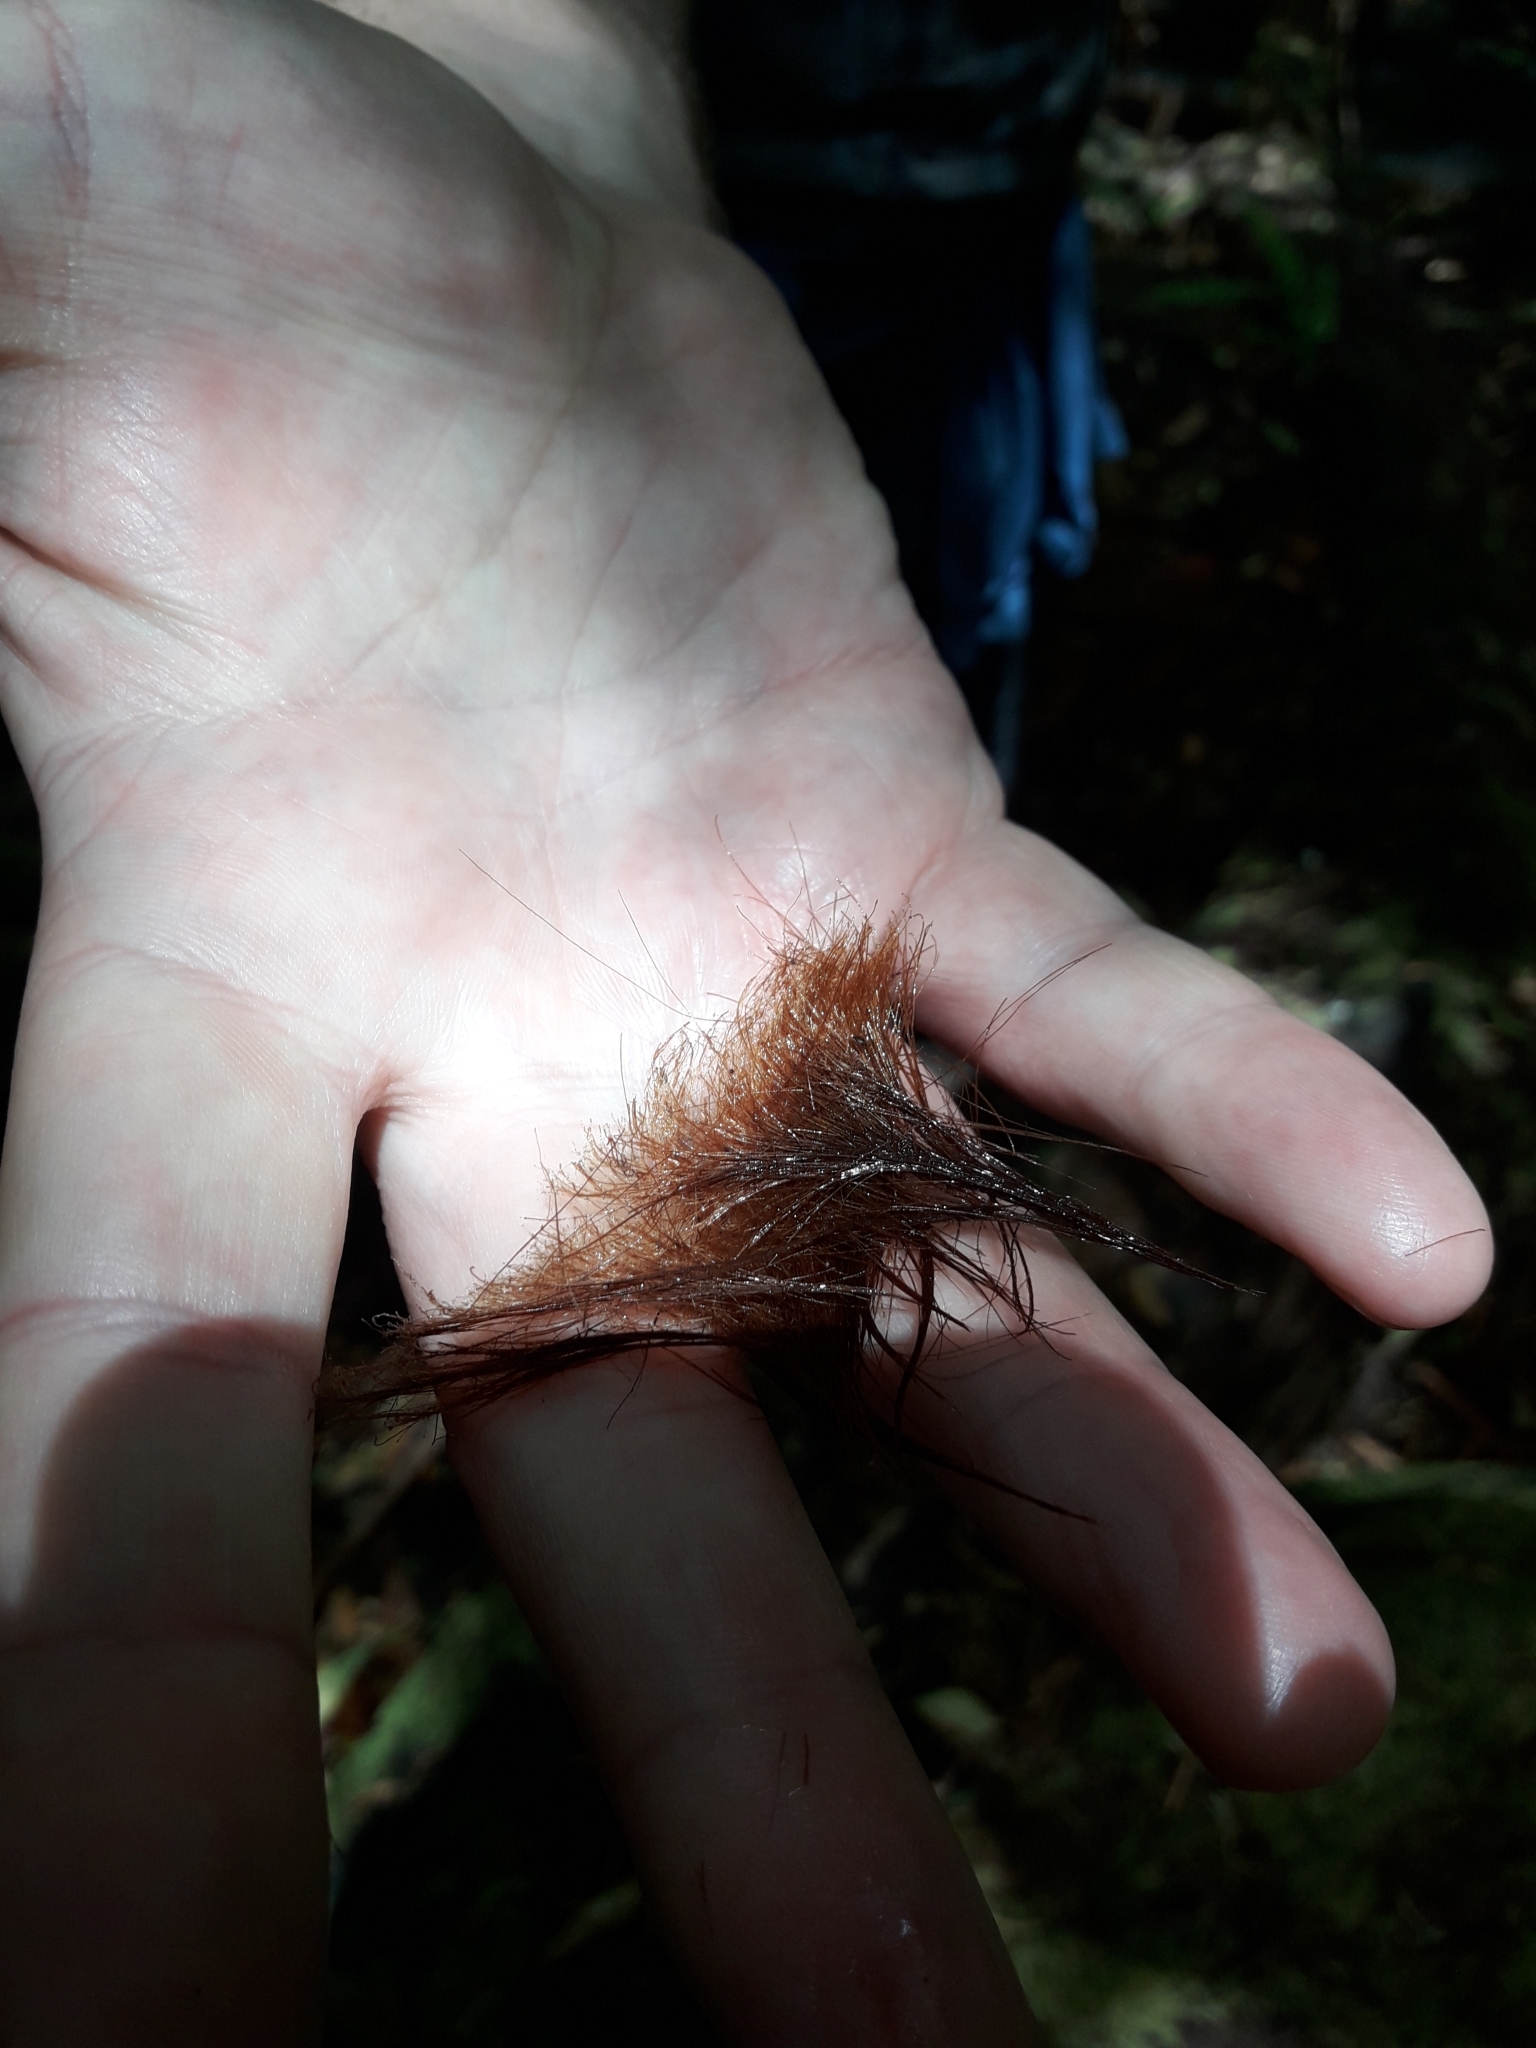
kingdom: Plantae
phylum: Tracheophyta
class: Polypodiopsida
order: Cyatheales
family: Dicksoniaceae
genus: Dicksonia
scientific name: Dicksonia antarctica
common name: Australian treefern
